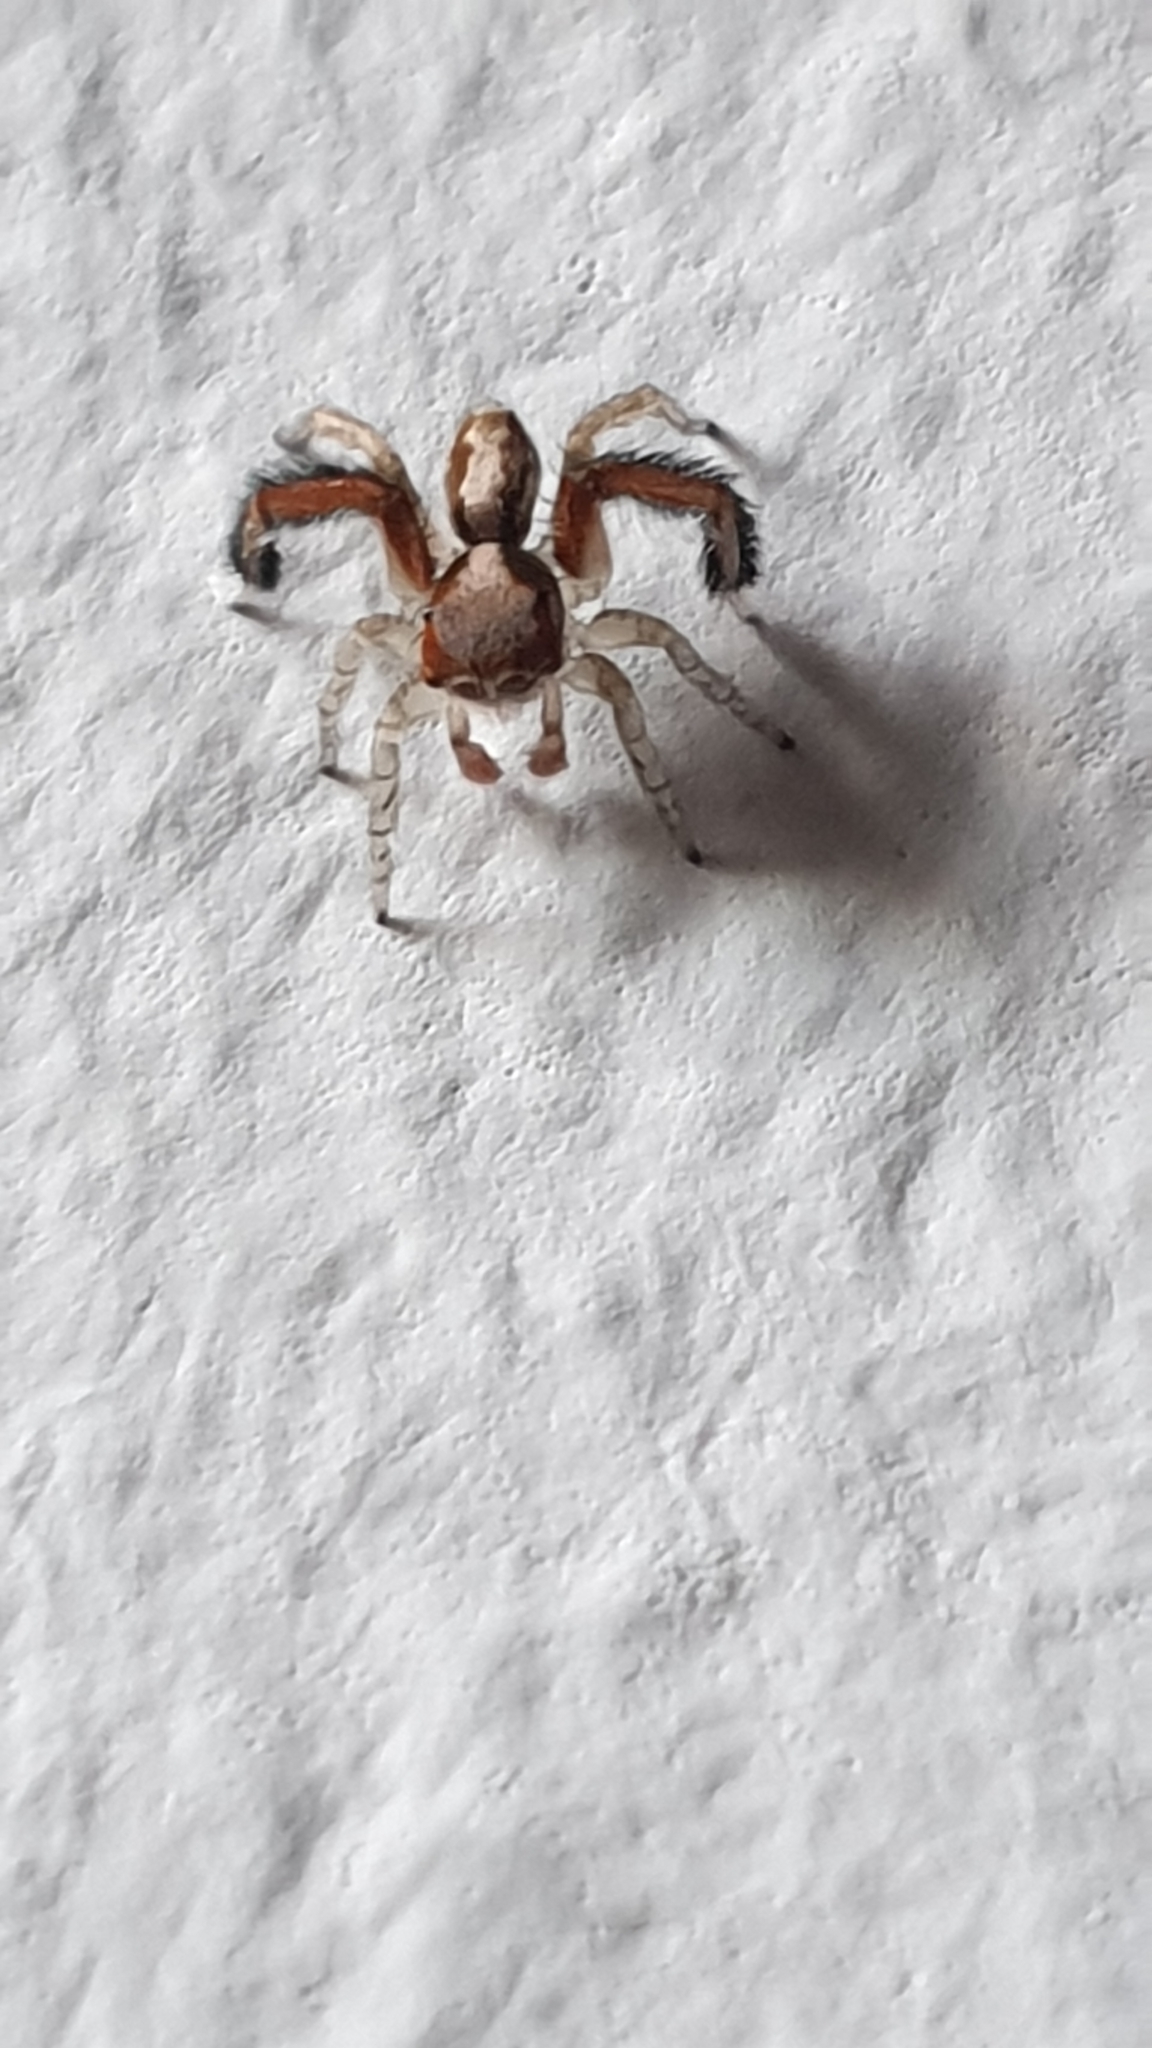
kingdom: Animalia
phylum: Arthropoda
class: Arachnida
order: Araneae
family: Salticidae
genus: Saitis
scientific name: Saitis barbipes
